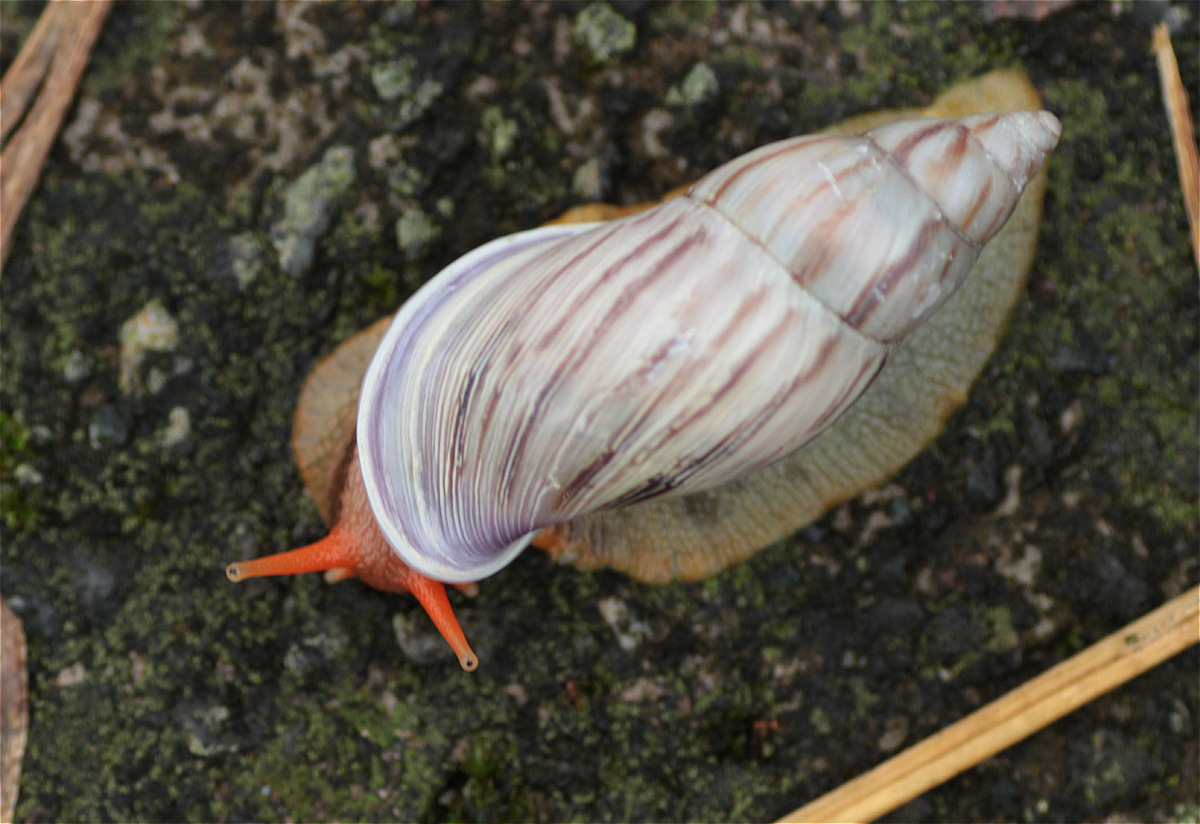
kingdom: Animalia
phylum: Mollusca
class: Gastropoda
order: Stylommatophora
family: Bulimulidae
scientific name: Bulimulidae
